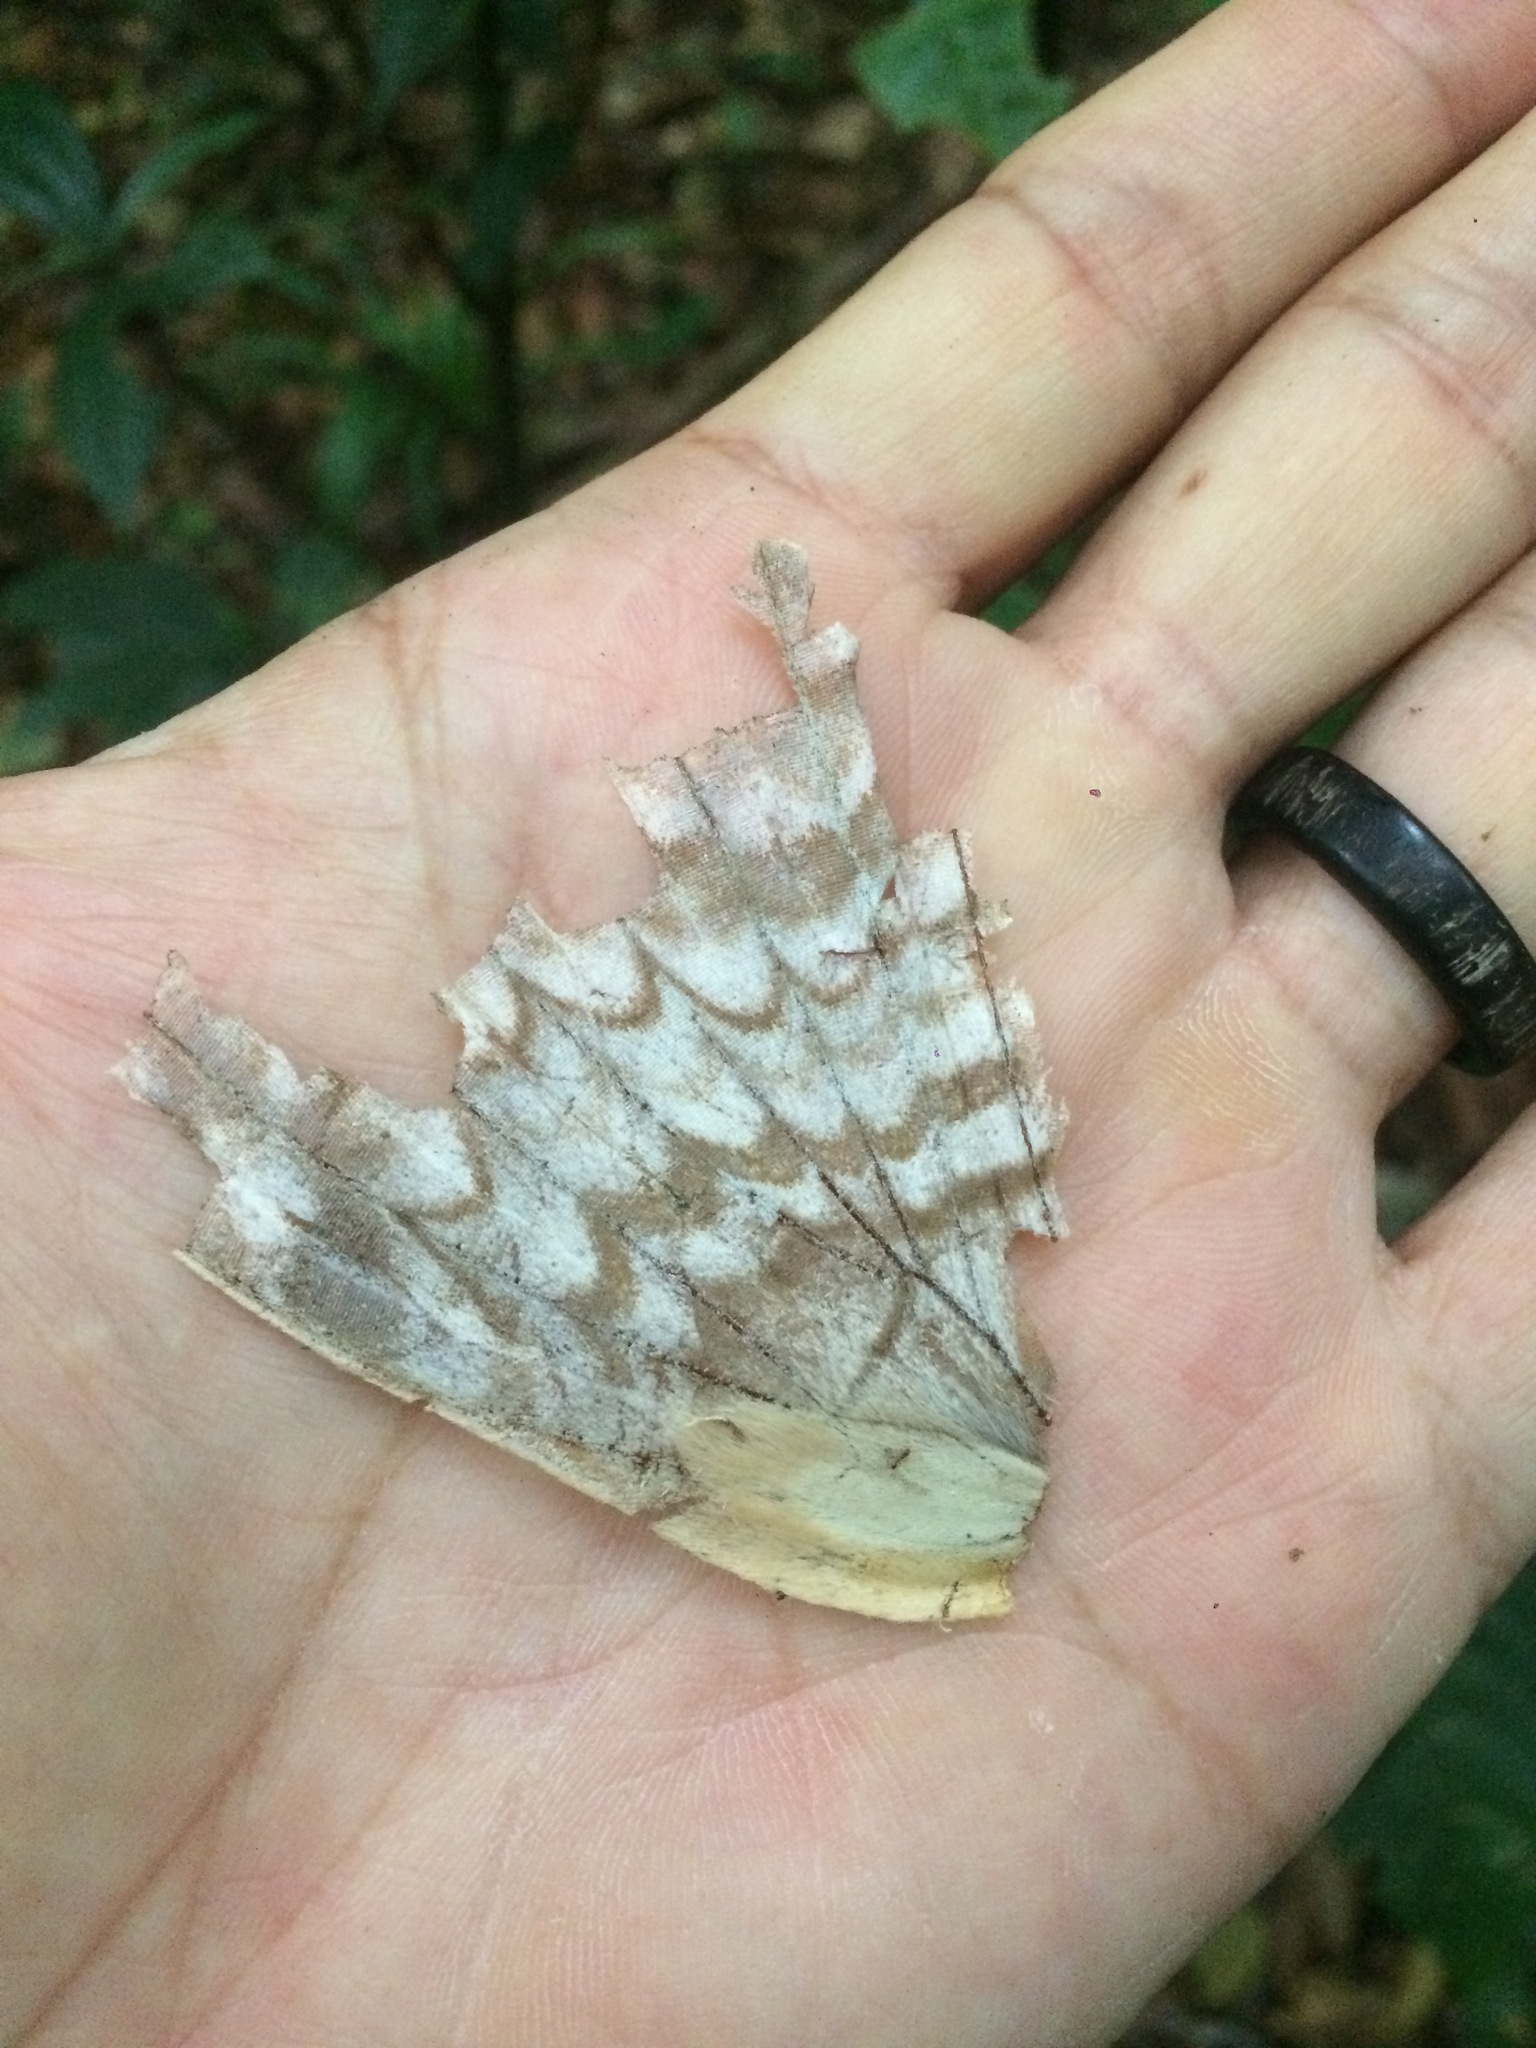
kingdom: Animalia
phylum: Arthropoda
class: Insecta
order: Lepidoptera
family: Erebidae
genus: Thysania
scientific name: Thysania agrippina
